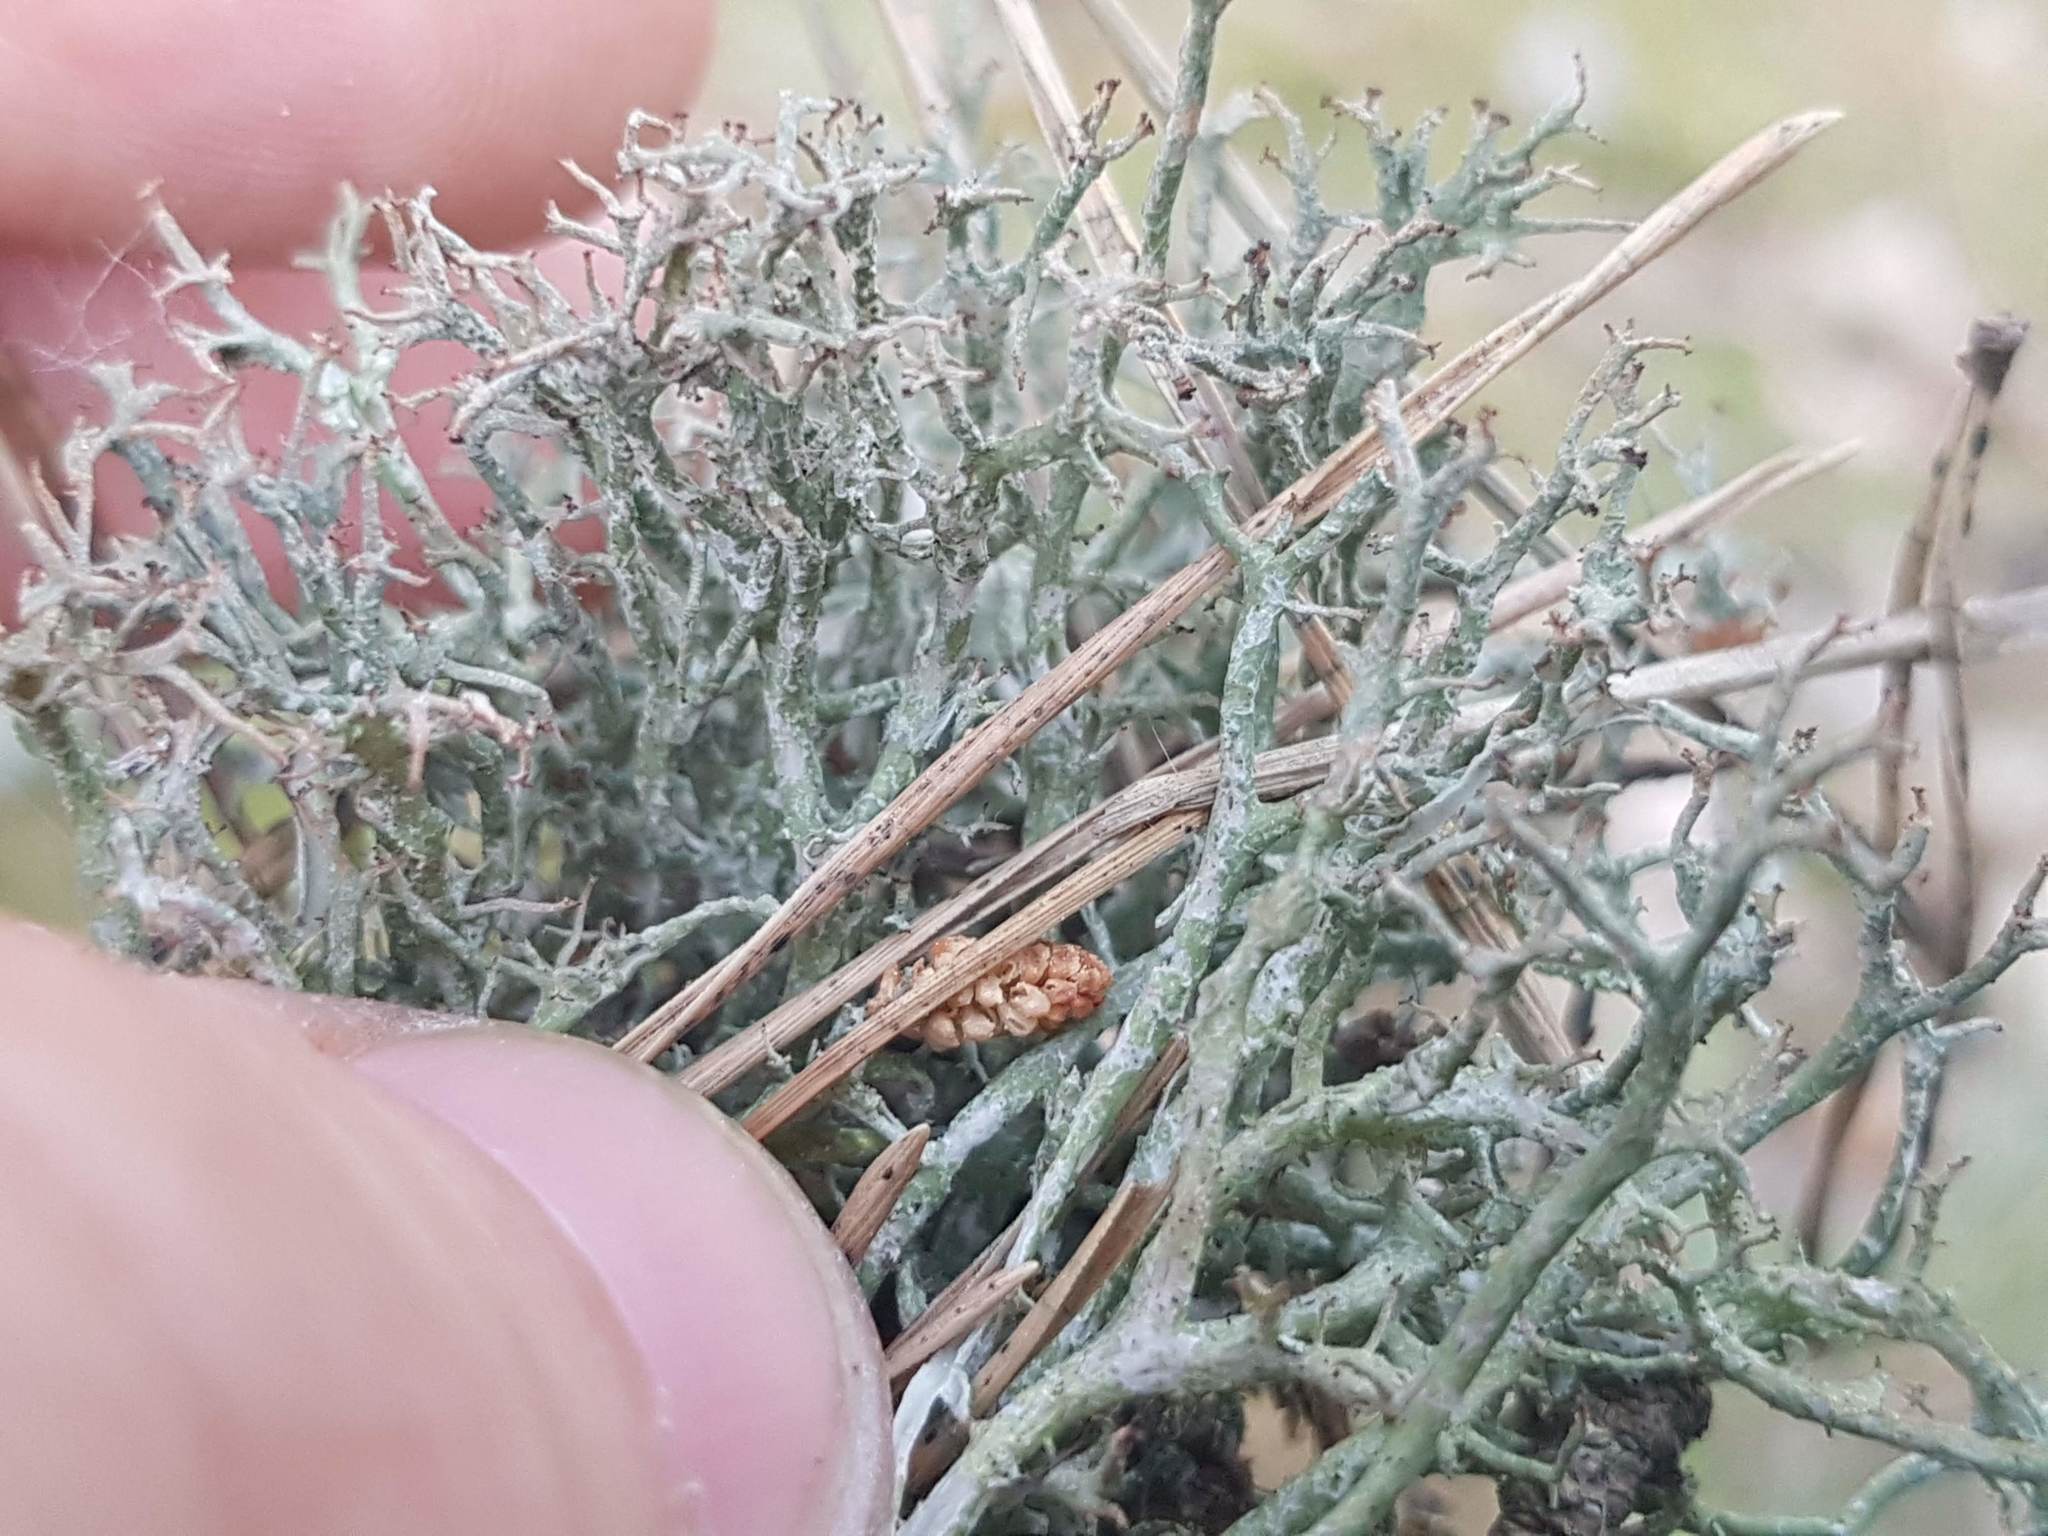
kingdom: Fungi
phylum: Ascomycota
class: Lecanoromycetes
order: Lecanorales
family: Cladoniaceae
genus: Cladonia
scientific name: Cladonia furcata
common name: Many-forked cladonia
